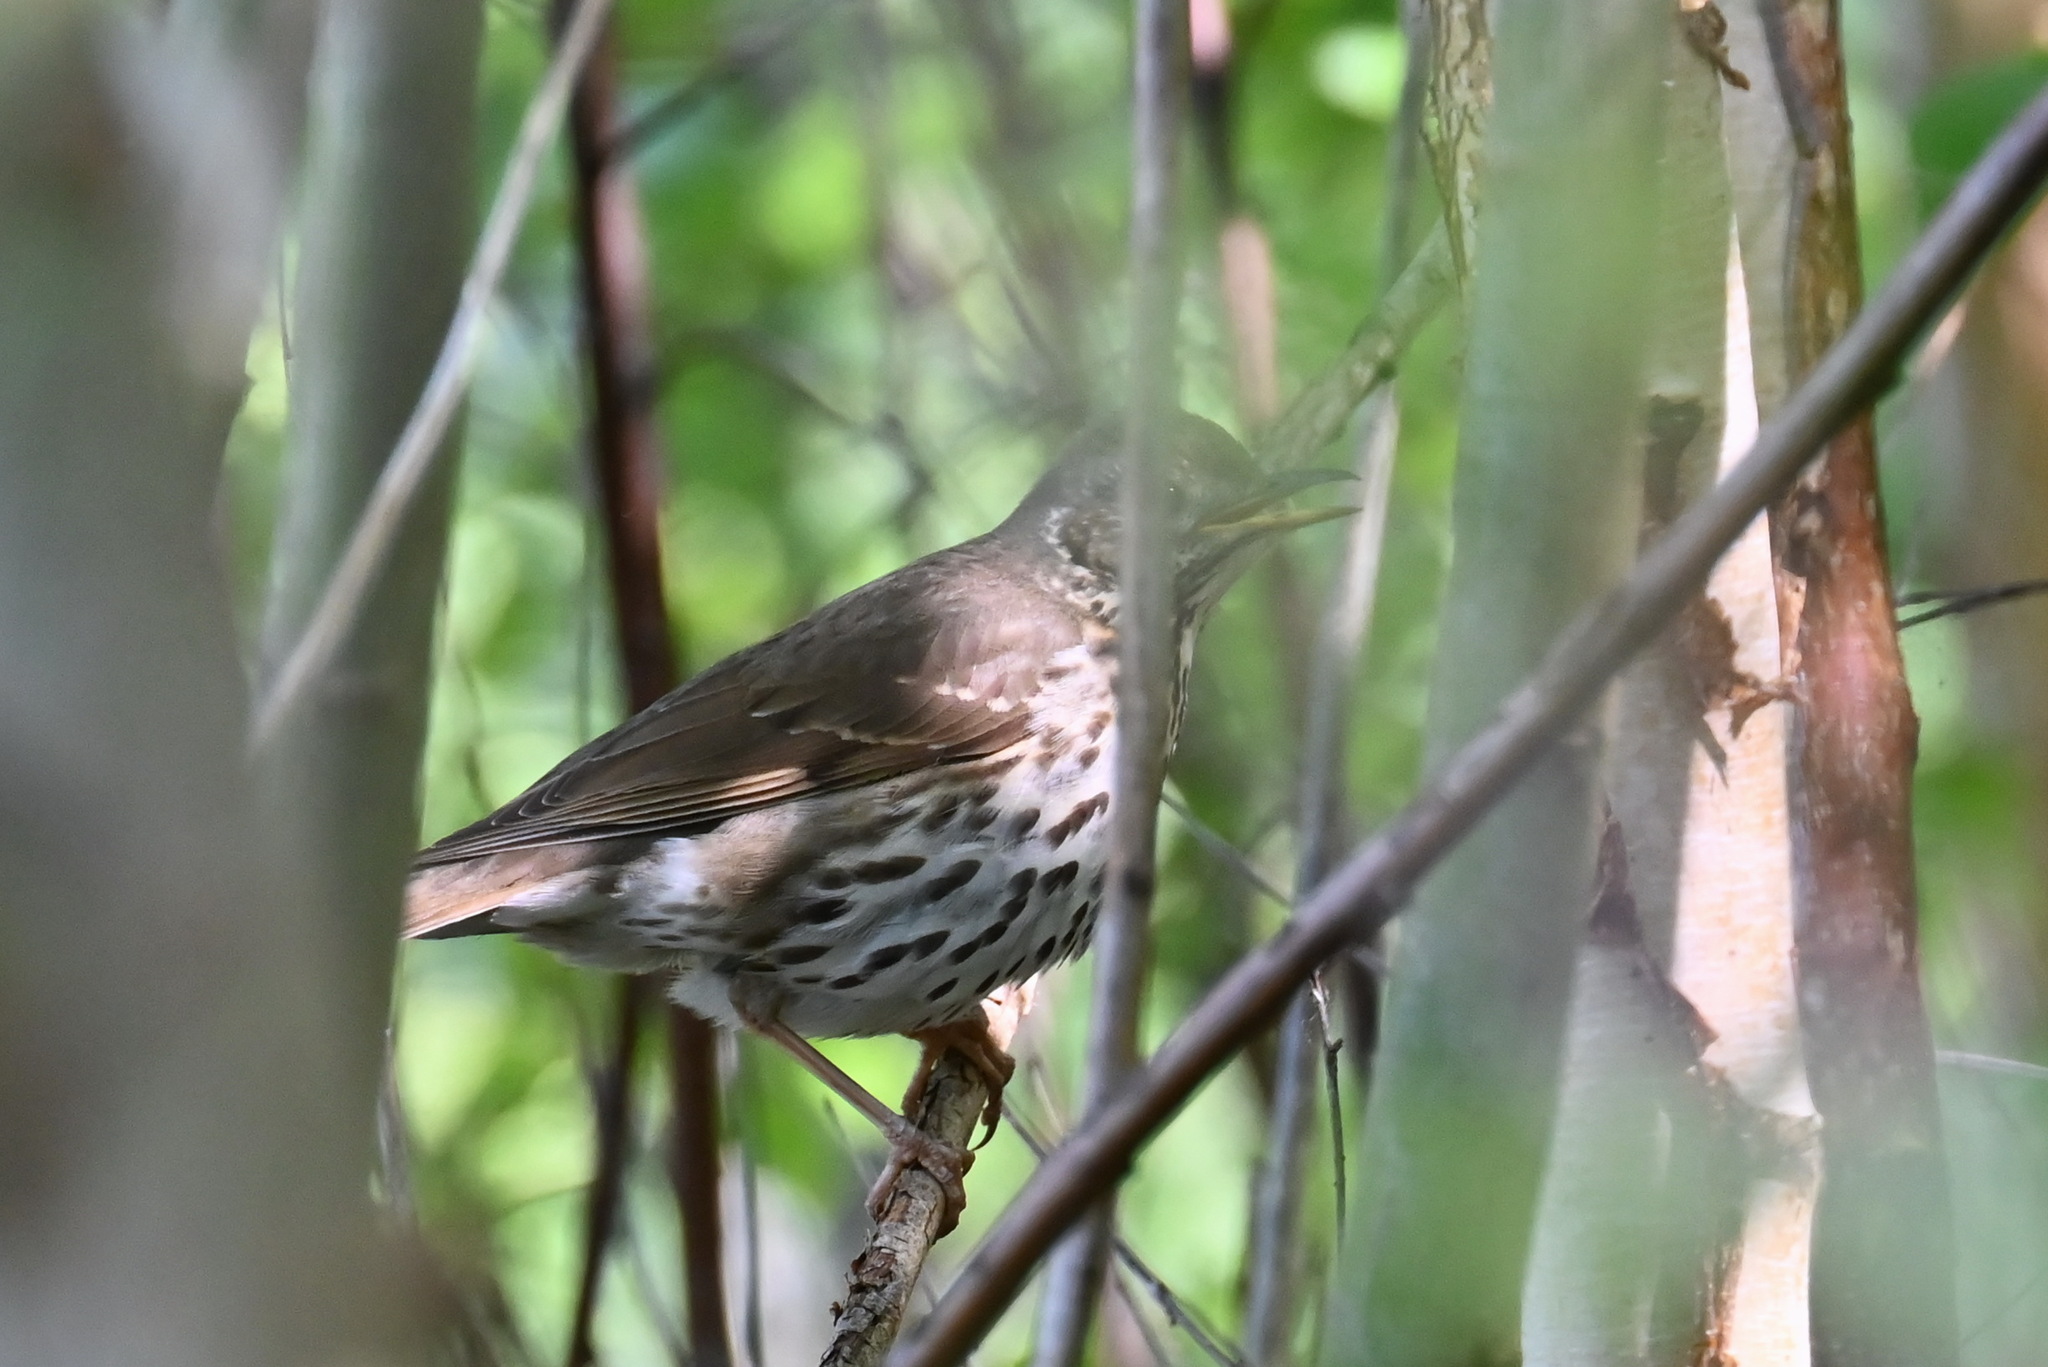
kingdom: Animalia
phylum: Chordata
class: Aves
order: Passeriformes
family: Turdidae
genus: Turdus
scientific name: Turdus philomelos
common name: Song thrush
